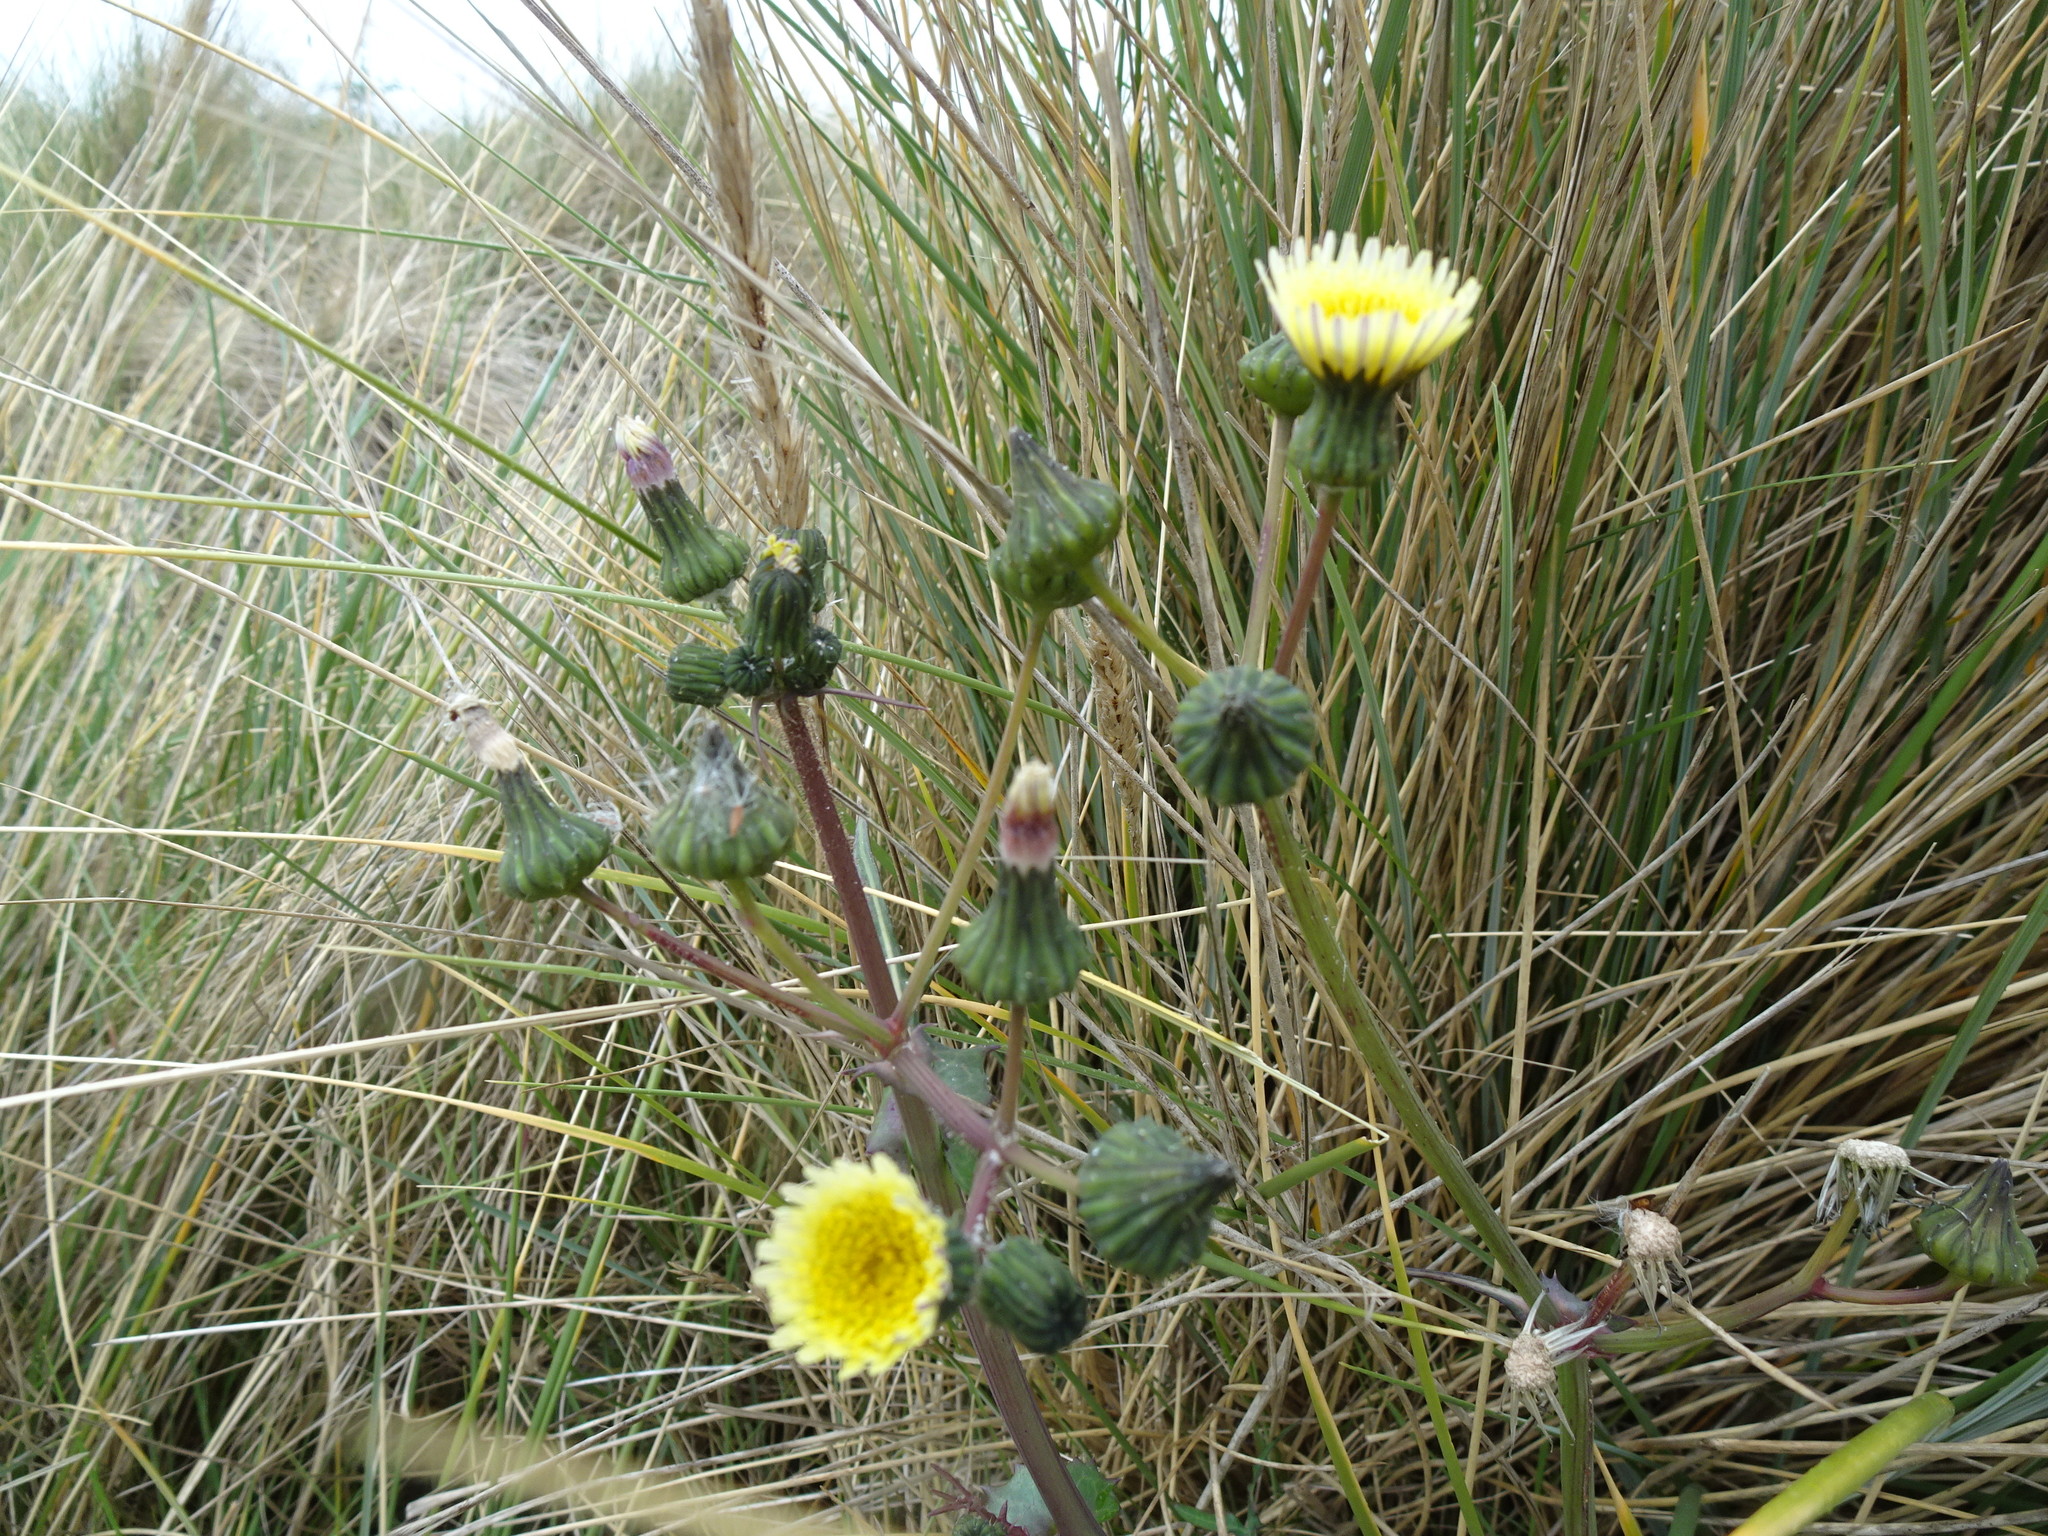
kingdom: Plantae
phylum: Tracheophyta
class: Magnoliopsida
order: Asterales
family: Asteraceae
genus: Sonchus
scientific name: Sonchus oleraceus
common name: Common sowthistle
